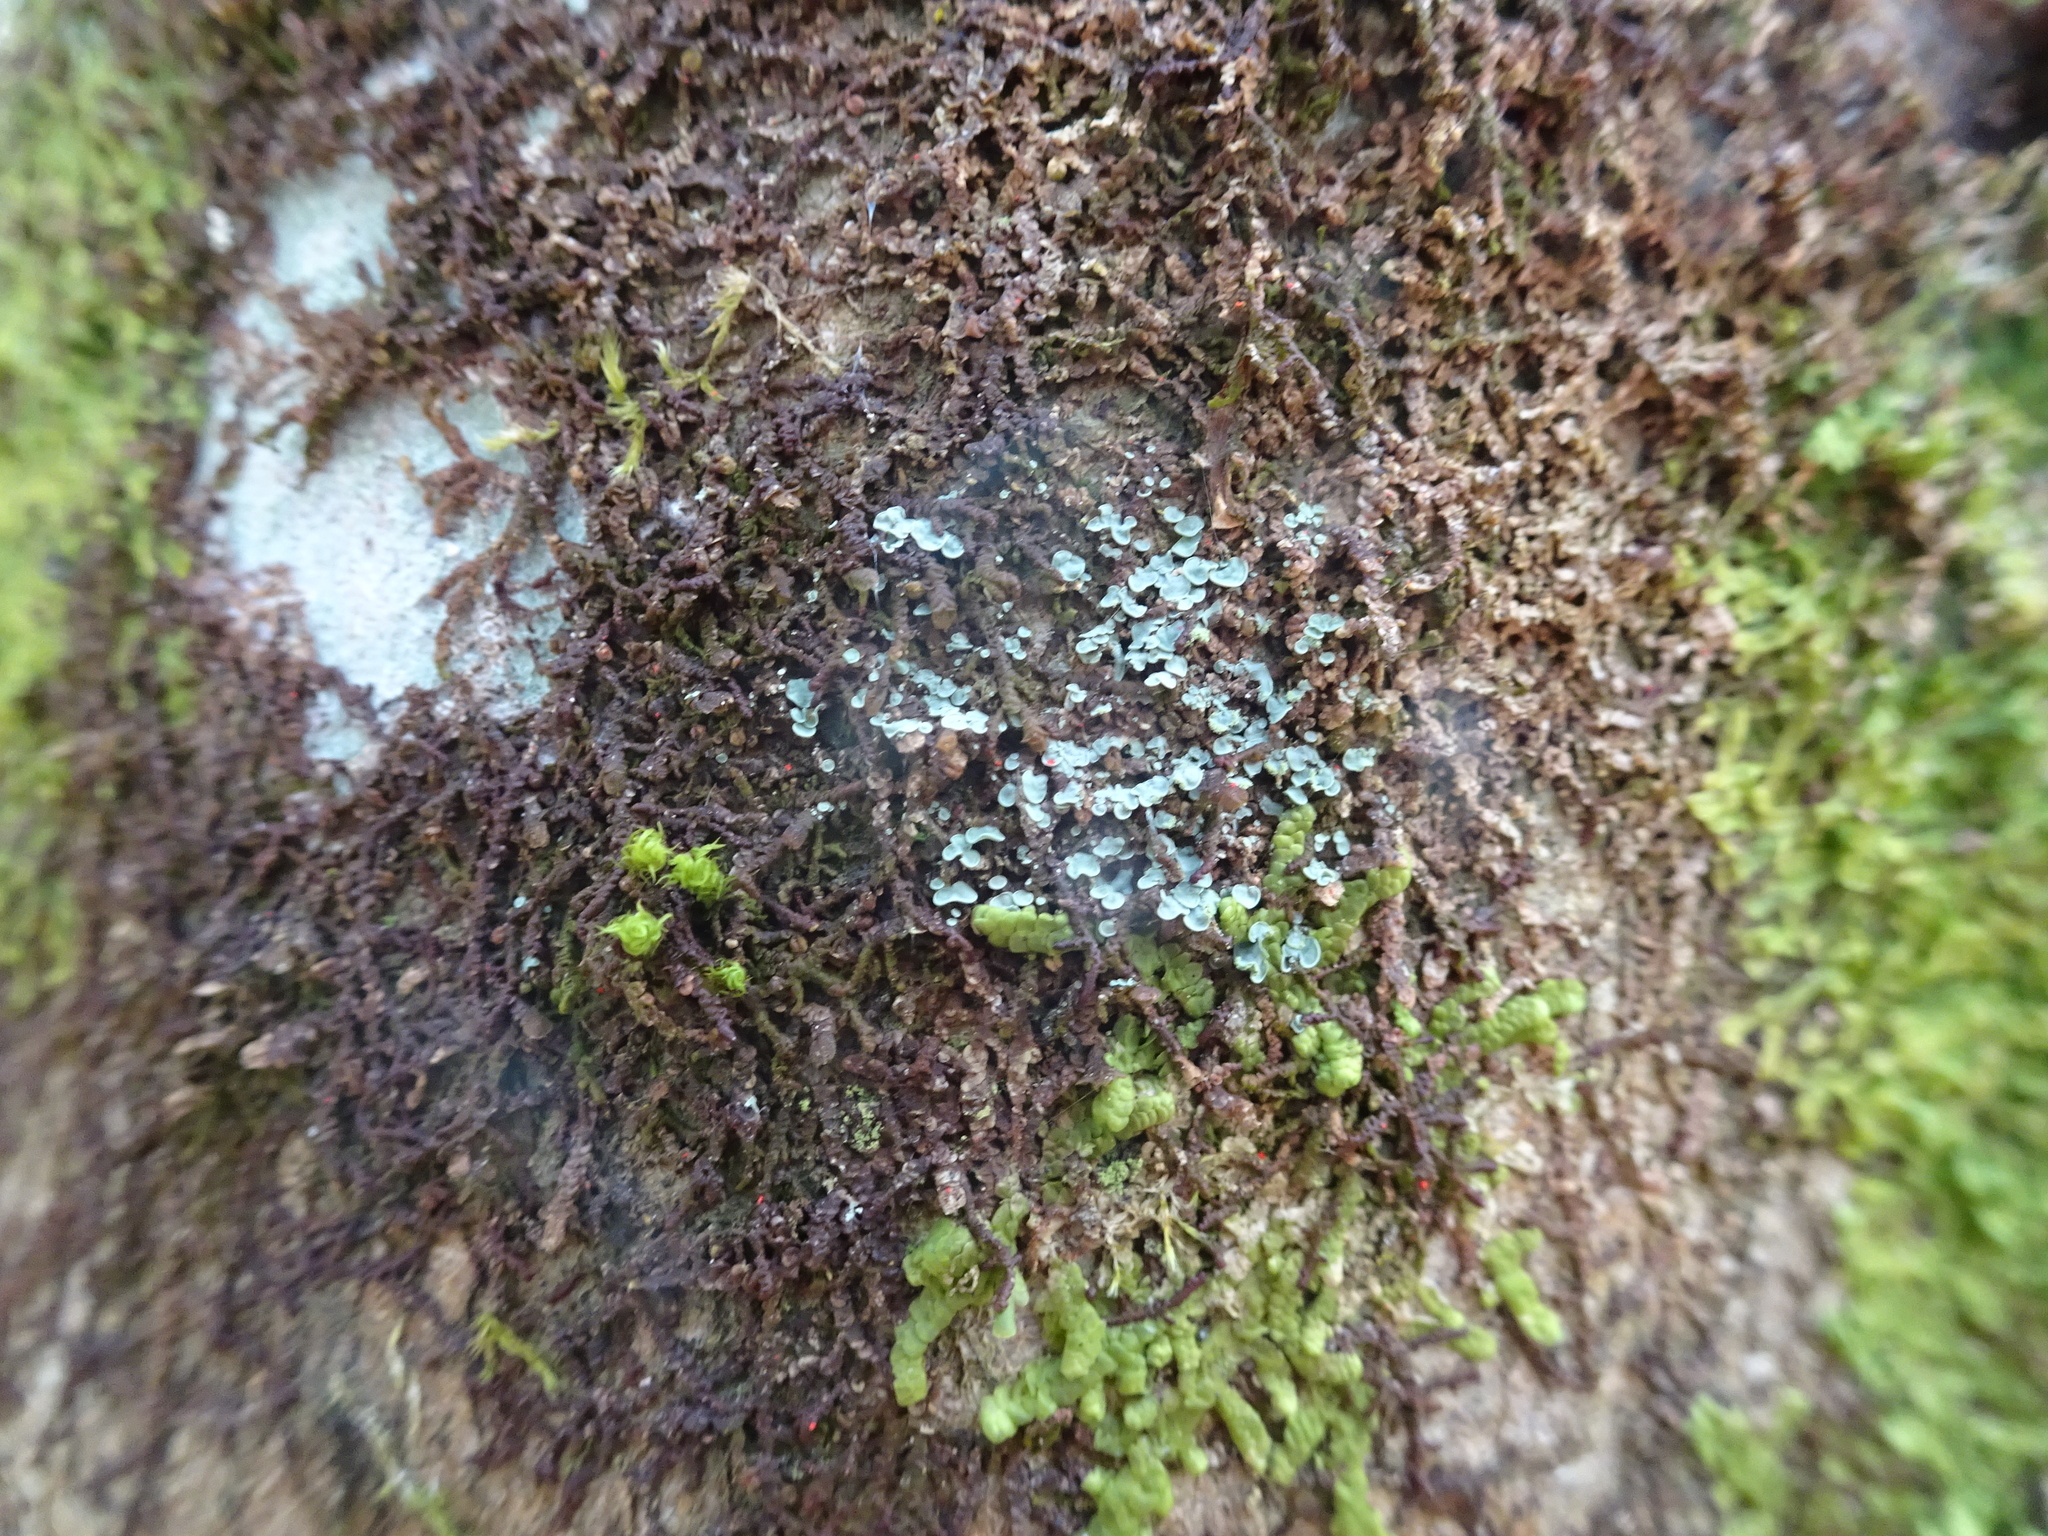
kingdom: Fungi
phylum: Ascomycota
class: Eurotiomycetes
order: Verrucariales
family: Verrucariaceae
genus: Normandina
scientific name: Normandina pulchella
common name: Elf ears lichen
